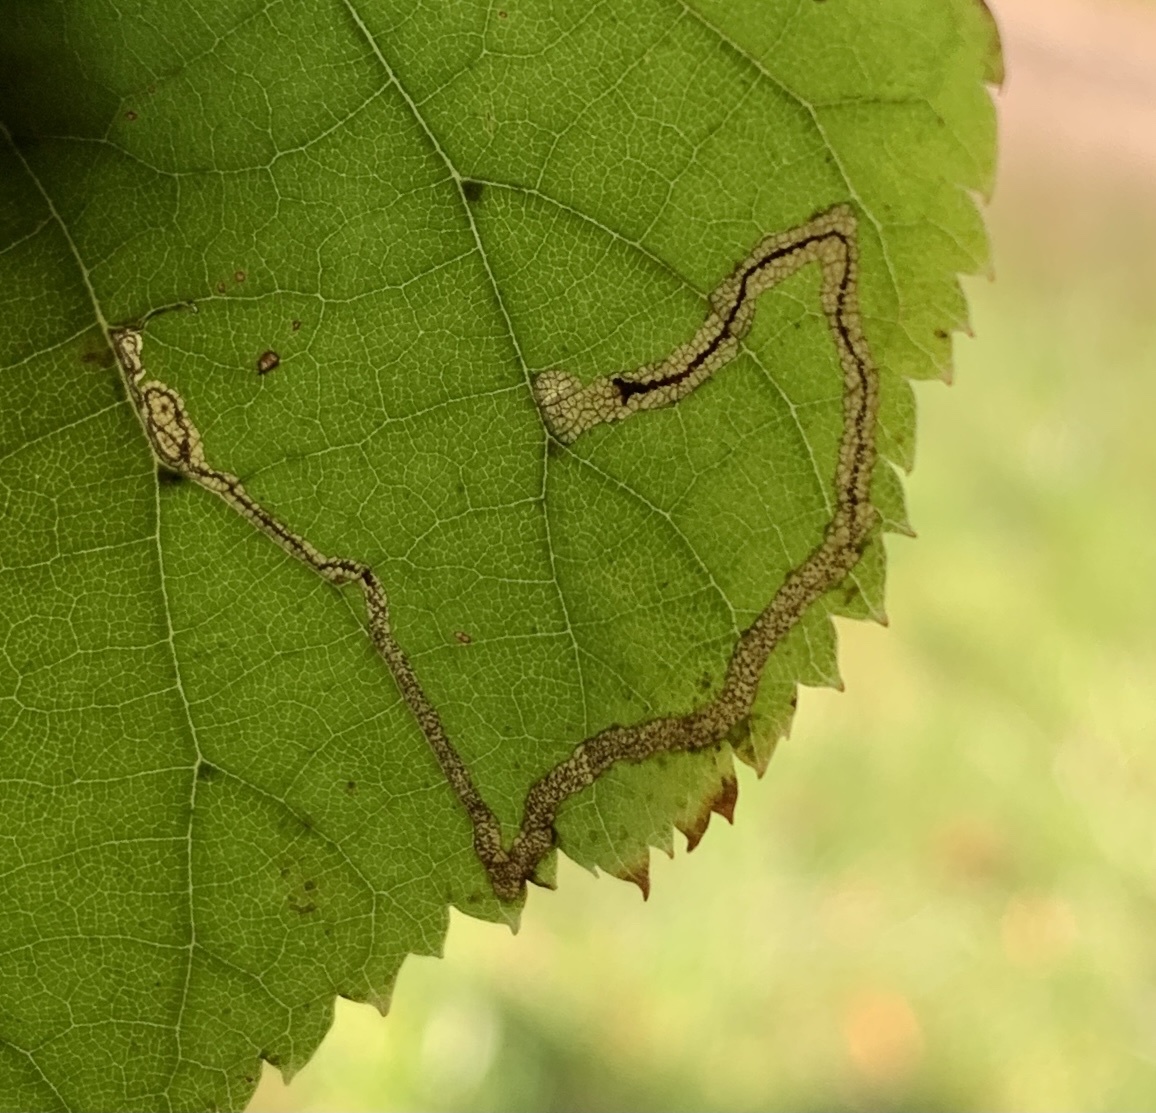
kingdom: Animalia
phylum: Arthropoda
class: Insecta
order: Lepidoptera
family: Nepticulidae
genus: Stigmella
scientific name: Stigmella tiliella
